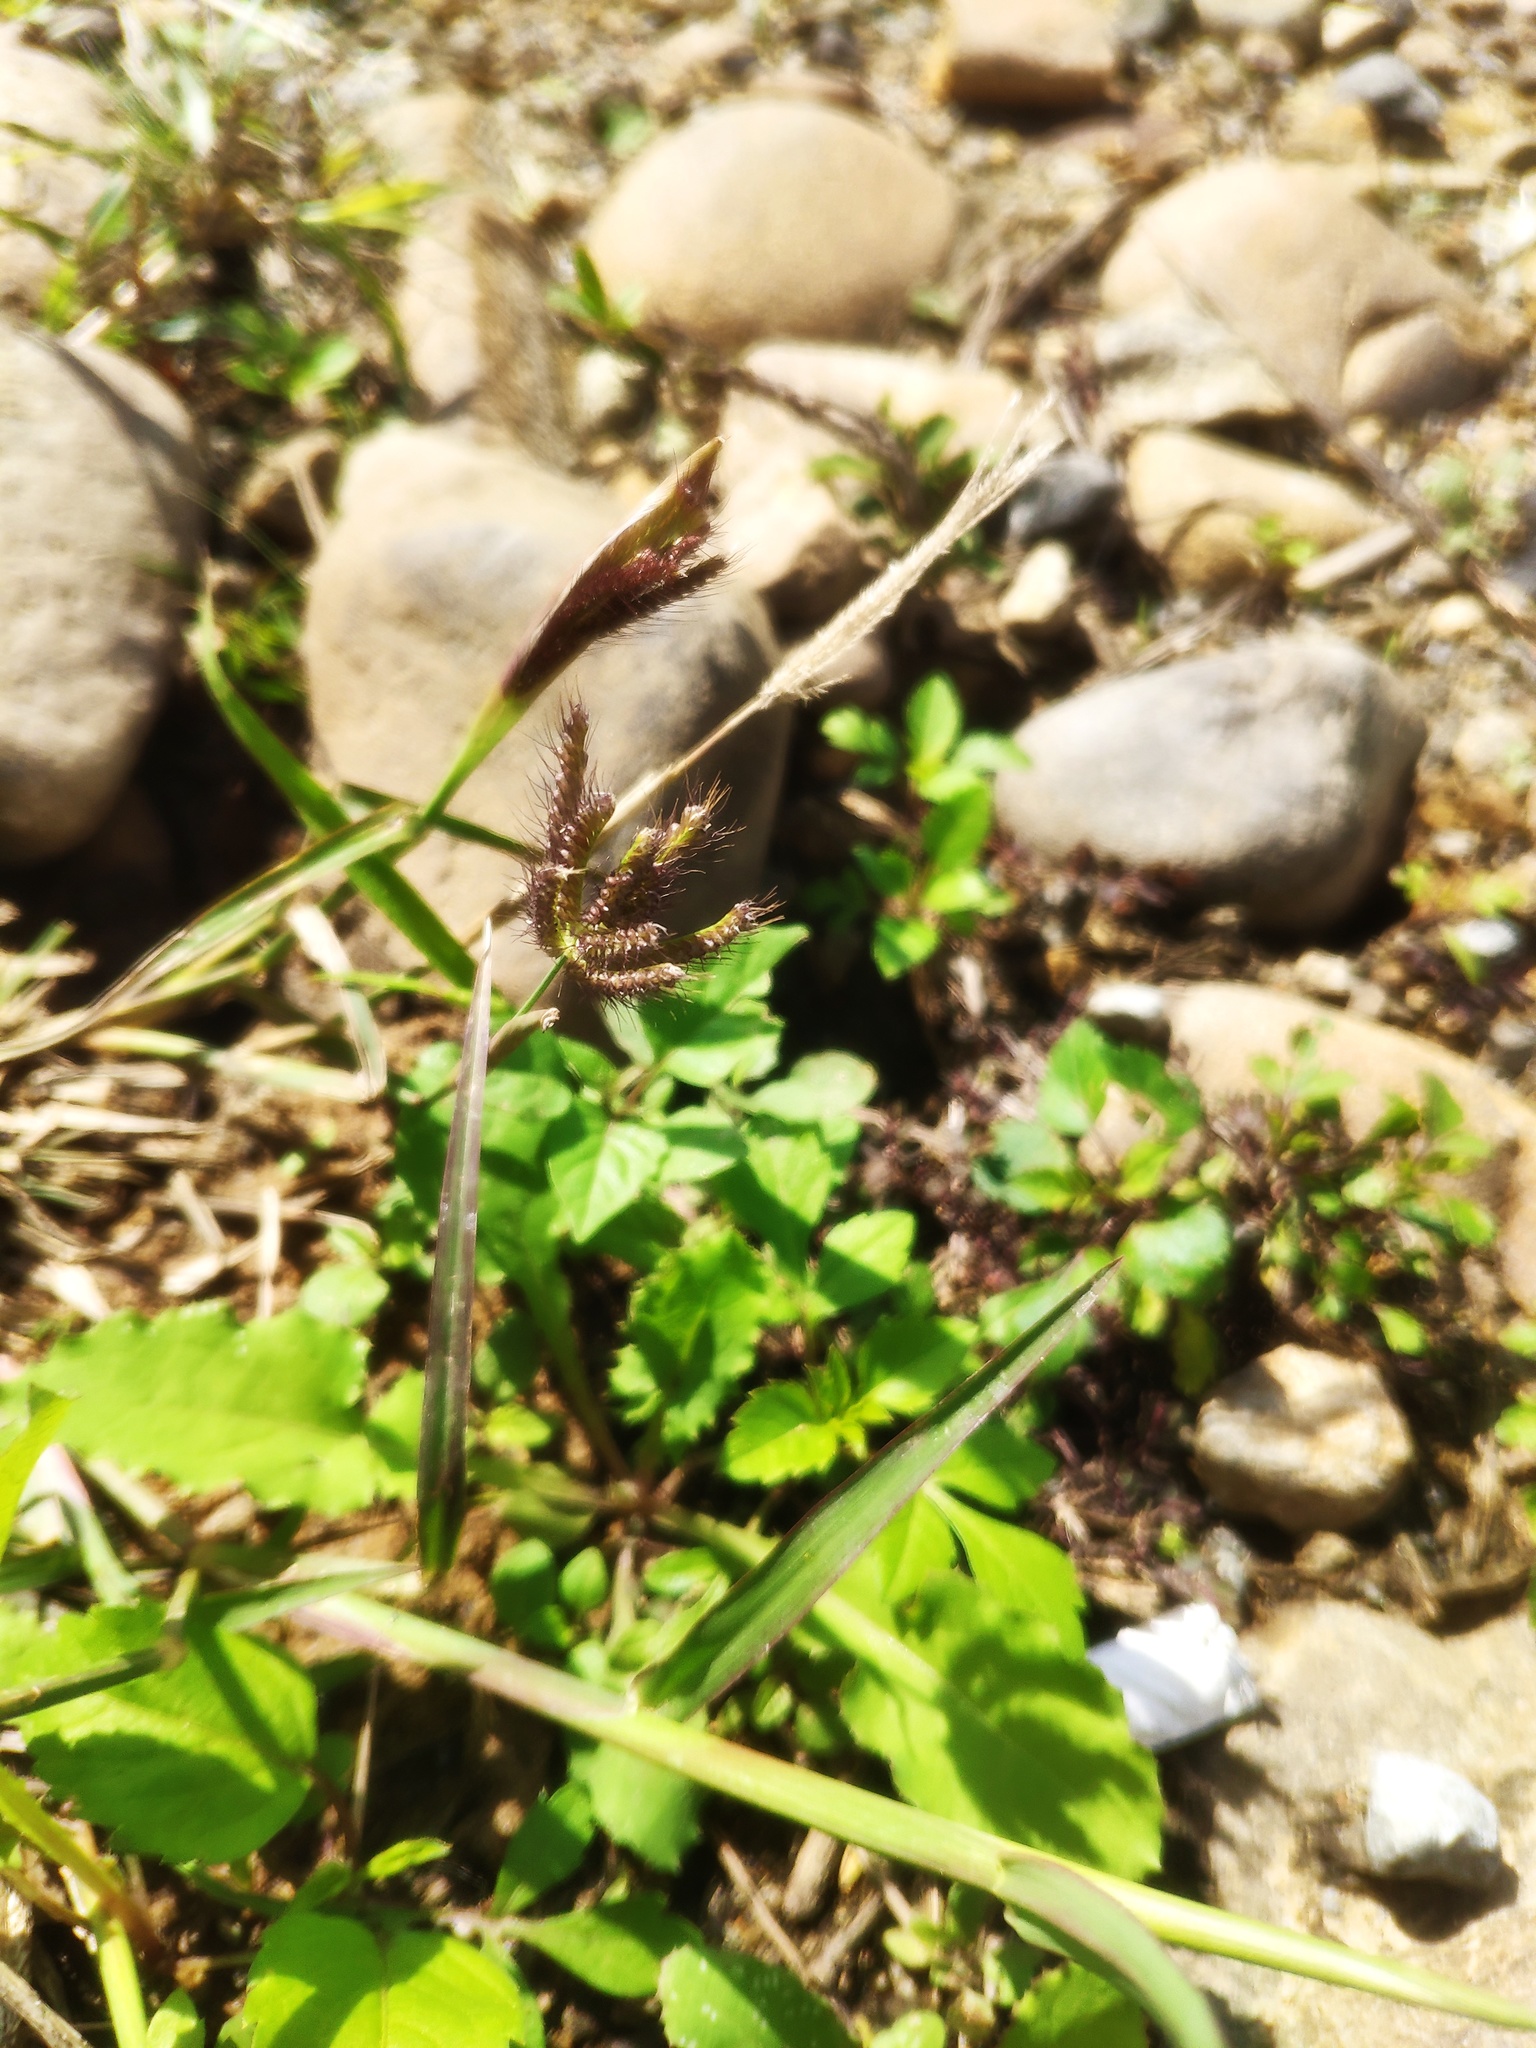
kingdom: Plantae
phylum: Tracheophyta
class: Liliopsida
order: Poales
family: Poaceae
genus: Chloris
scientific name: Chloris barbata
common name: Swollen fingergrass
